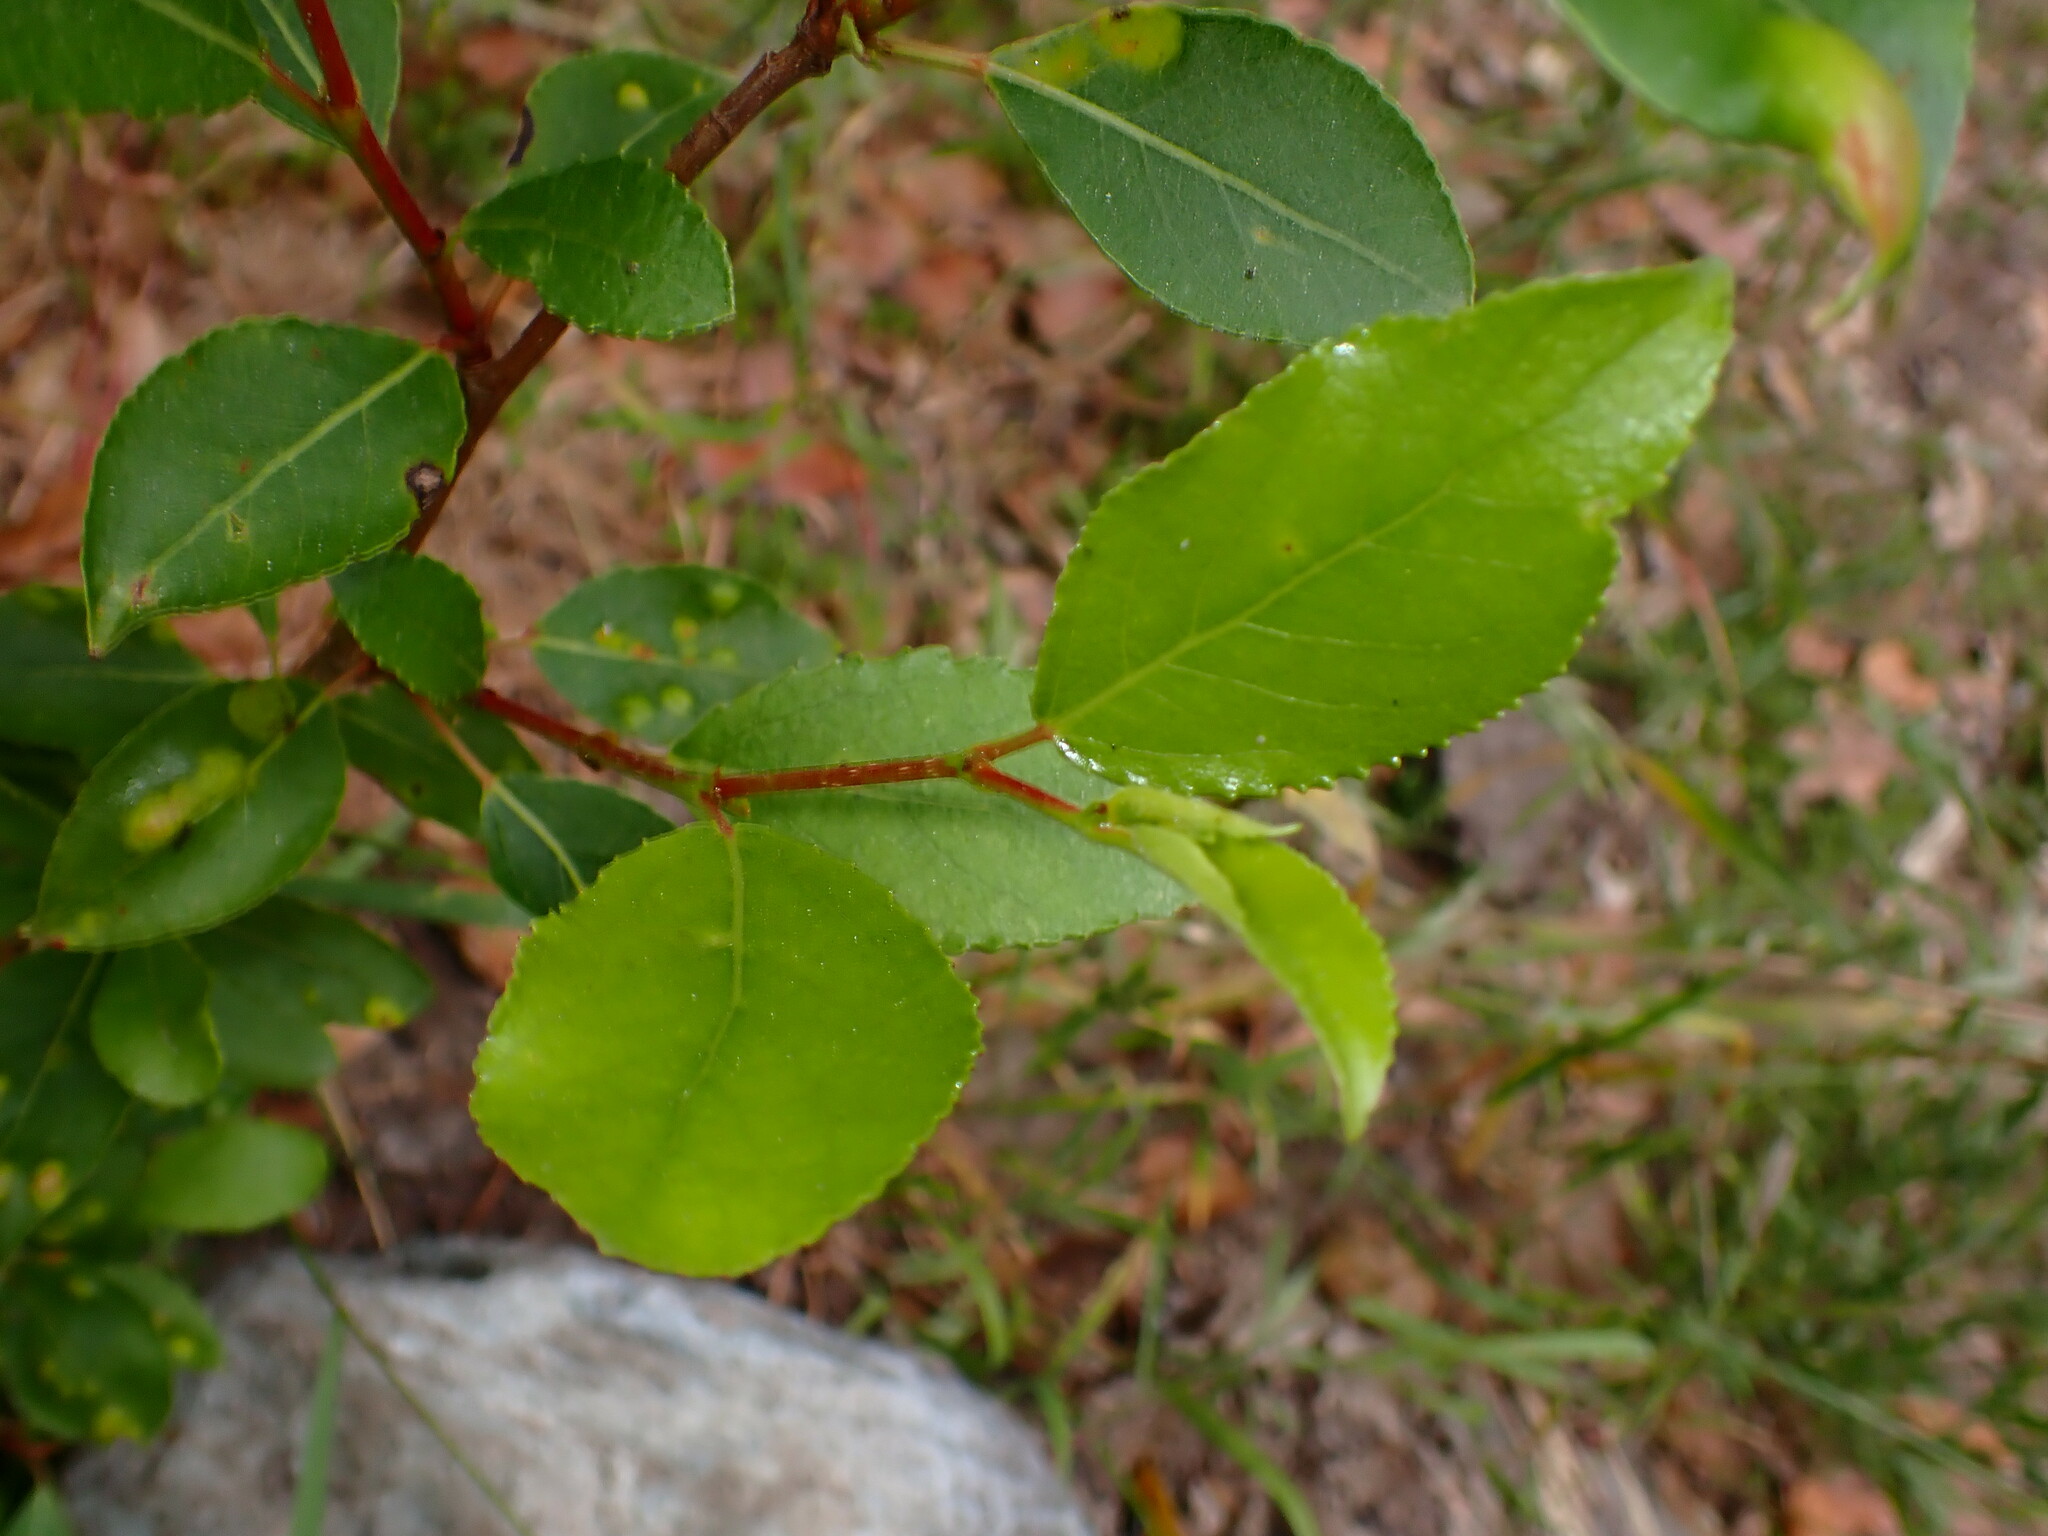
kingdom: Plantae
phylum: Tracheophyta
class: Magnoliopsida
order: Malpighiales
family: Salicaceae
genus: Populus
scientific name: Populus trichocarpa
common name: Black cottonwood
